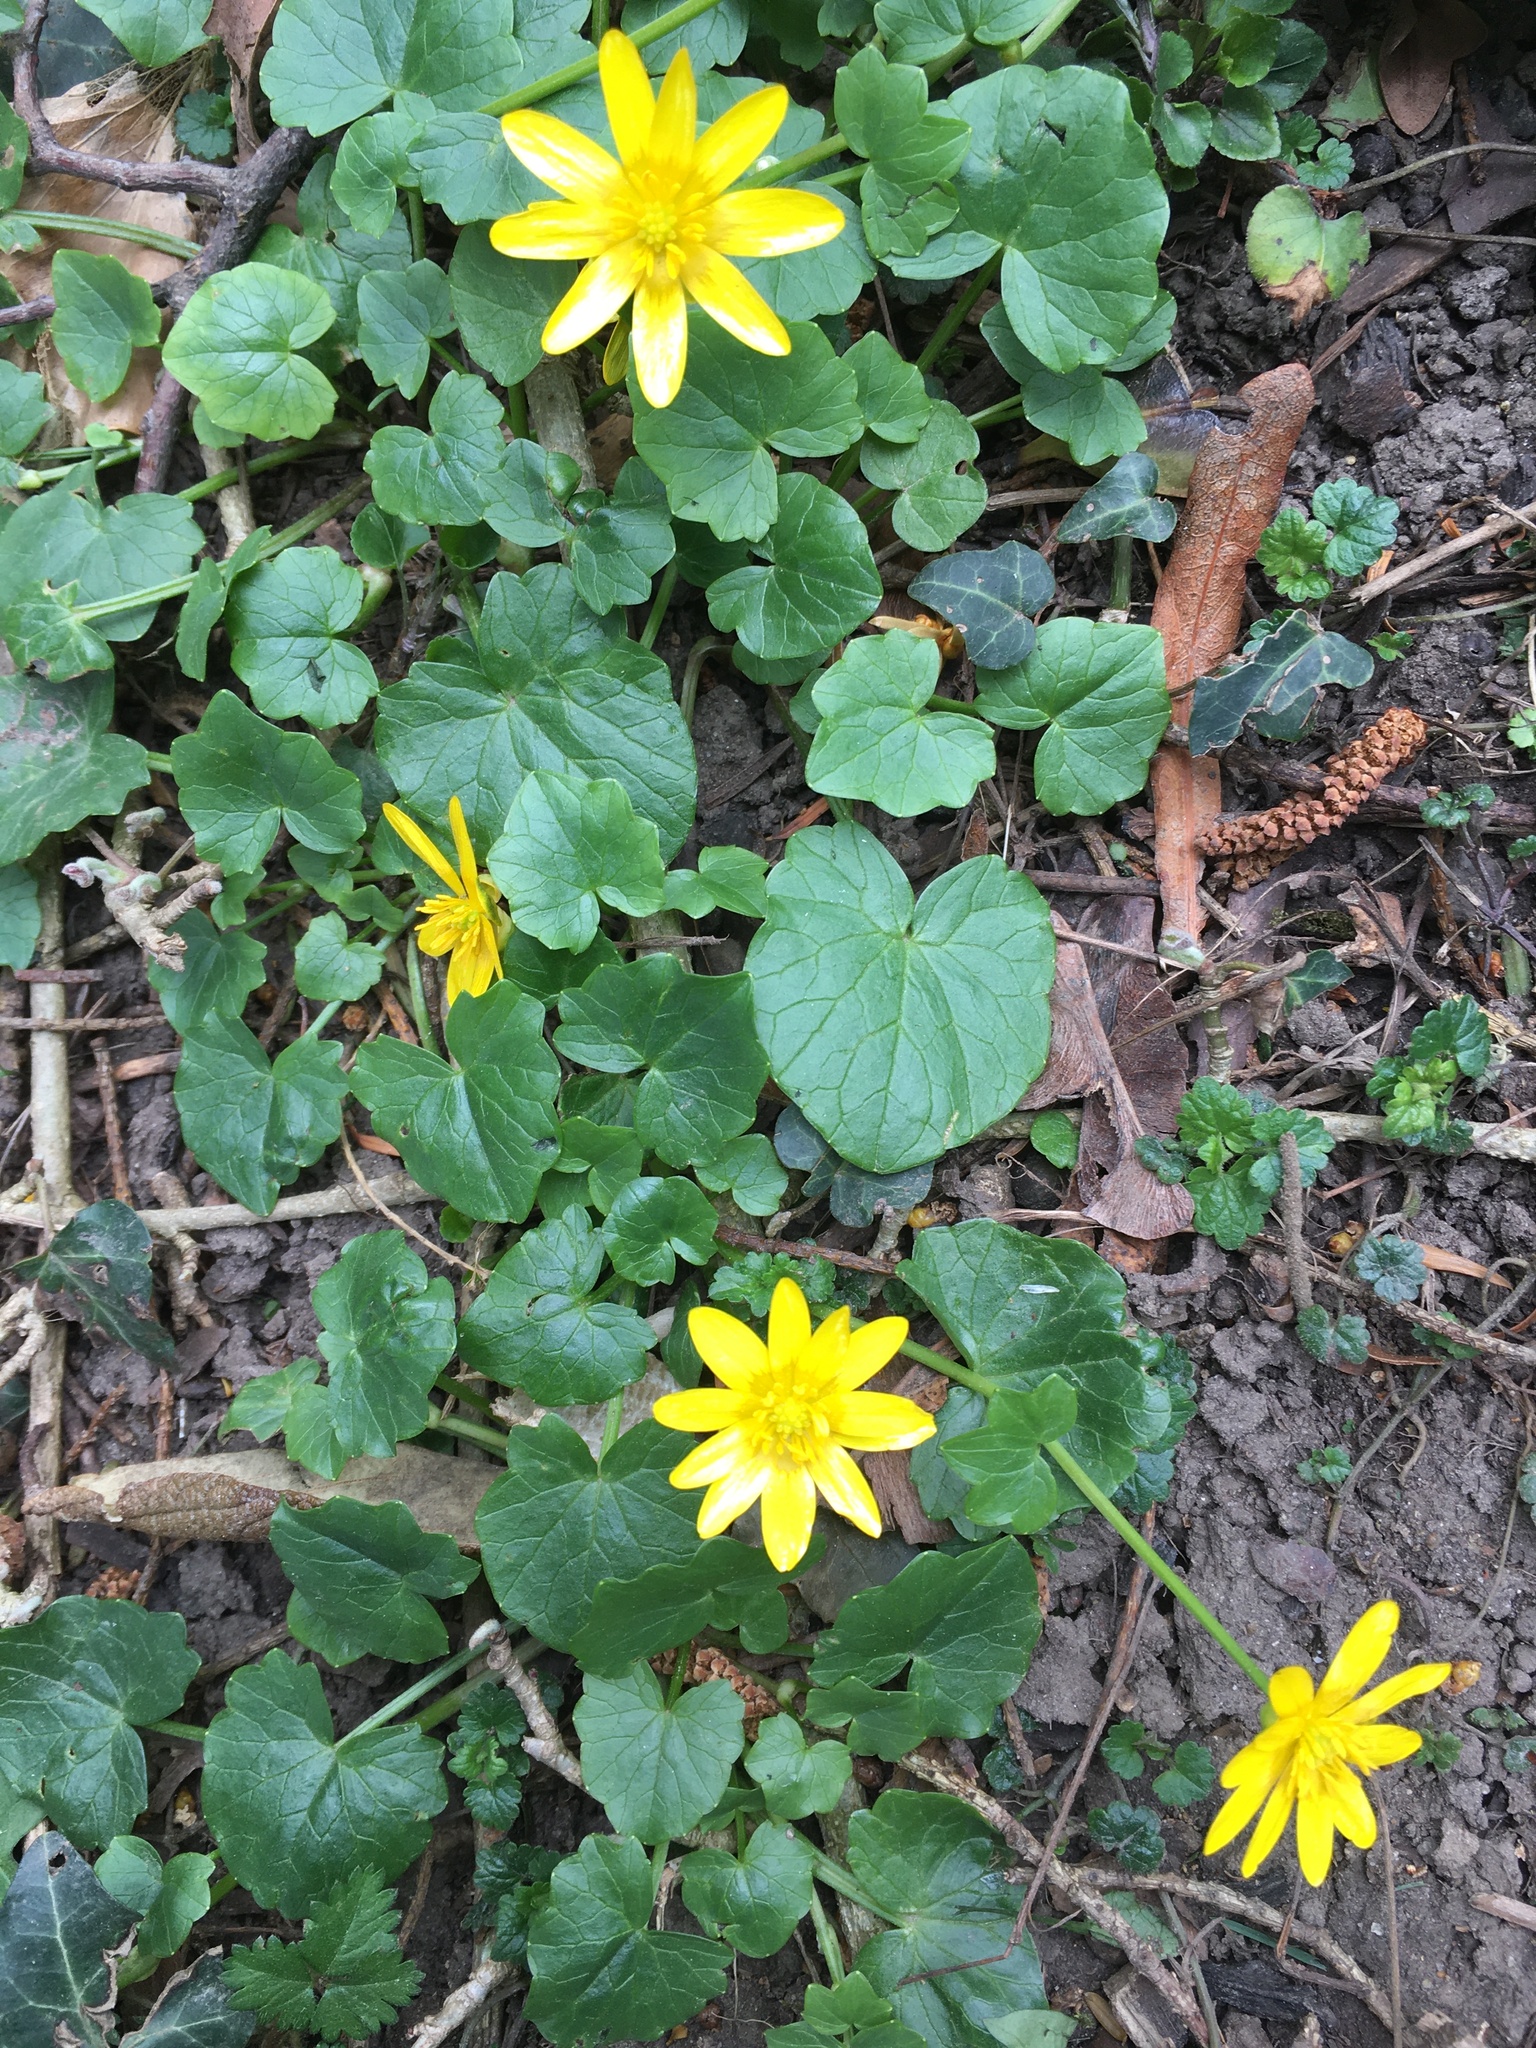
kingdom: Plantae
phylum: Tracheophyta
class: Magnoliopsida
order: Ranunculales
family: Ranunculaceae
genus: Ficaria
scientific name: Ficaria verna
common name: Lesser celandine
